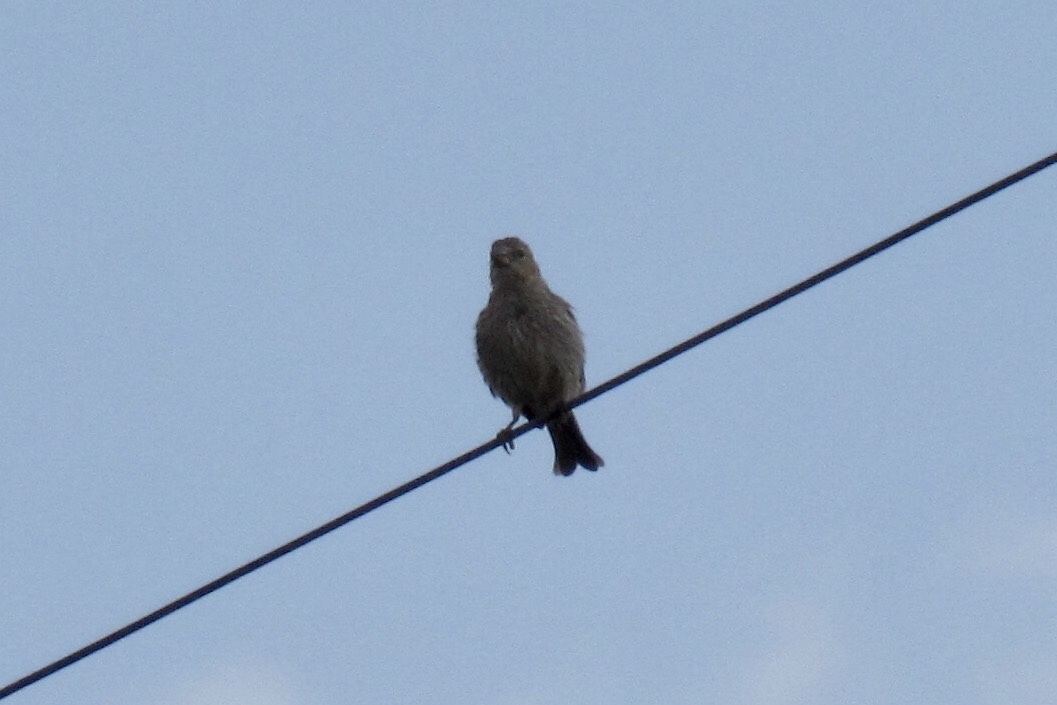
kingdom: Animalia
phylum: Chordata
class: Aves
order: Passeriformes
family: Fringillidae
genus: Haemorhous
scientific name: Haemorhous mexicanus
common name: House finch
